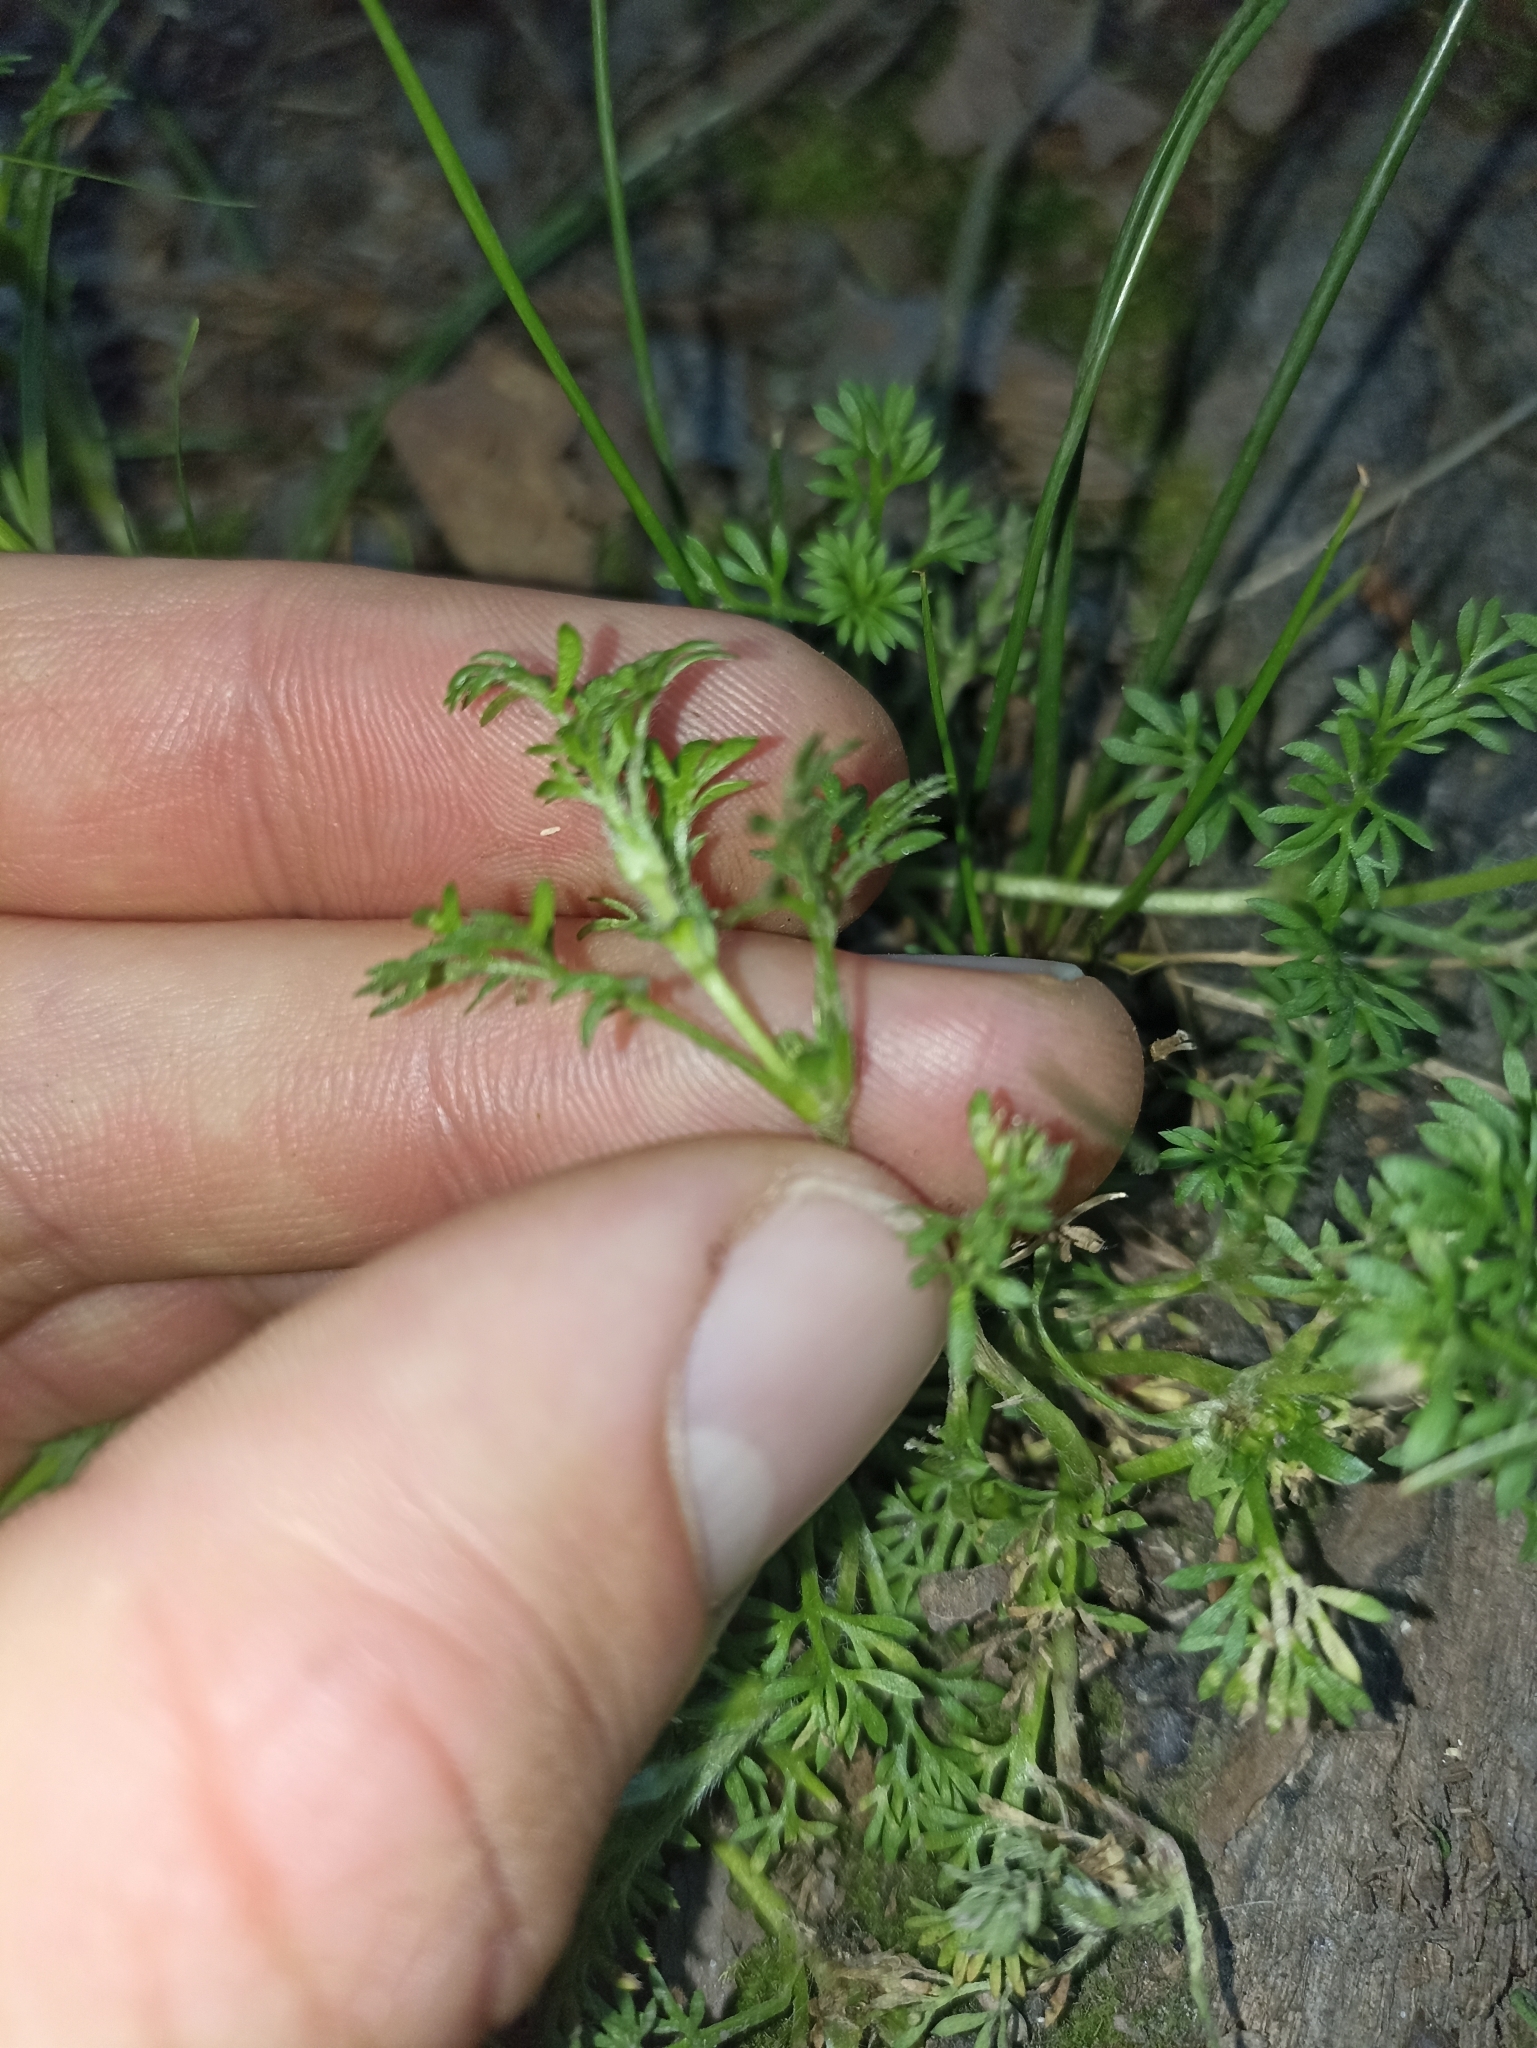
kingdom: Plantae
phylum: Tracheophyta
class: Magnoliopsida
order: Asterales
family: Asteraceae
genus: Soliva
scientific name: Soliva sessilis
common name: Field burrweed
